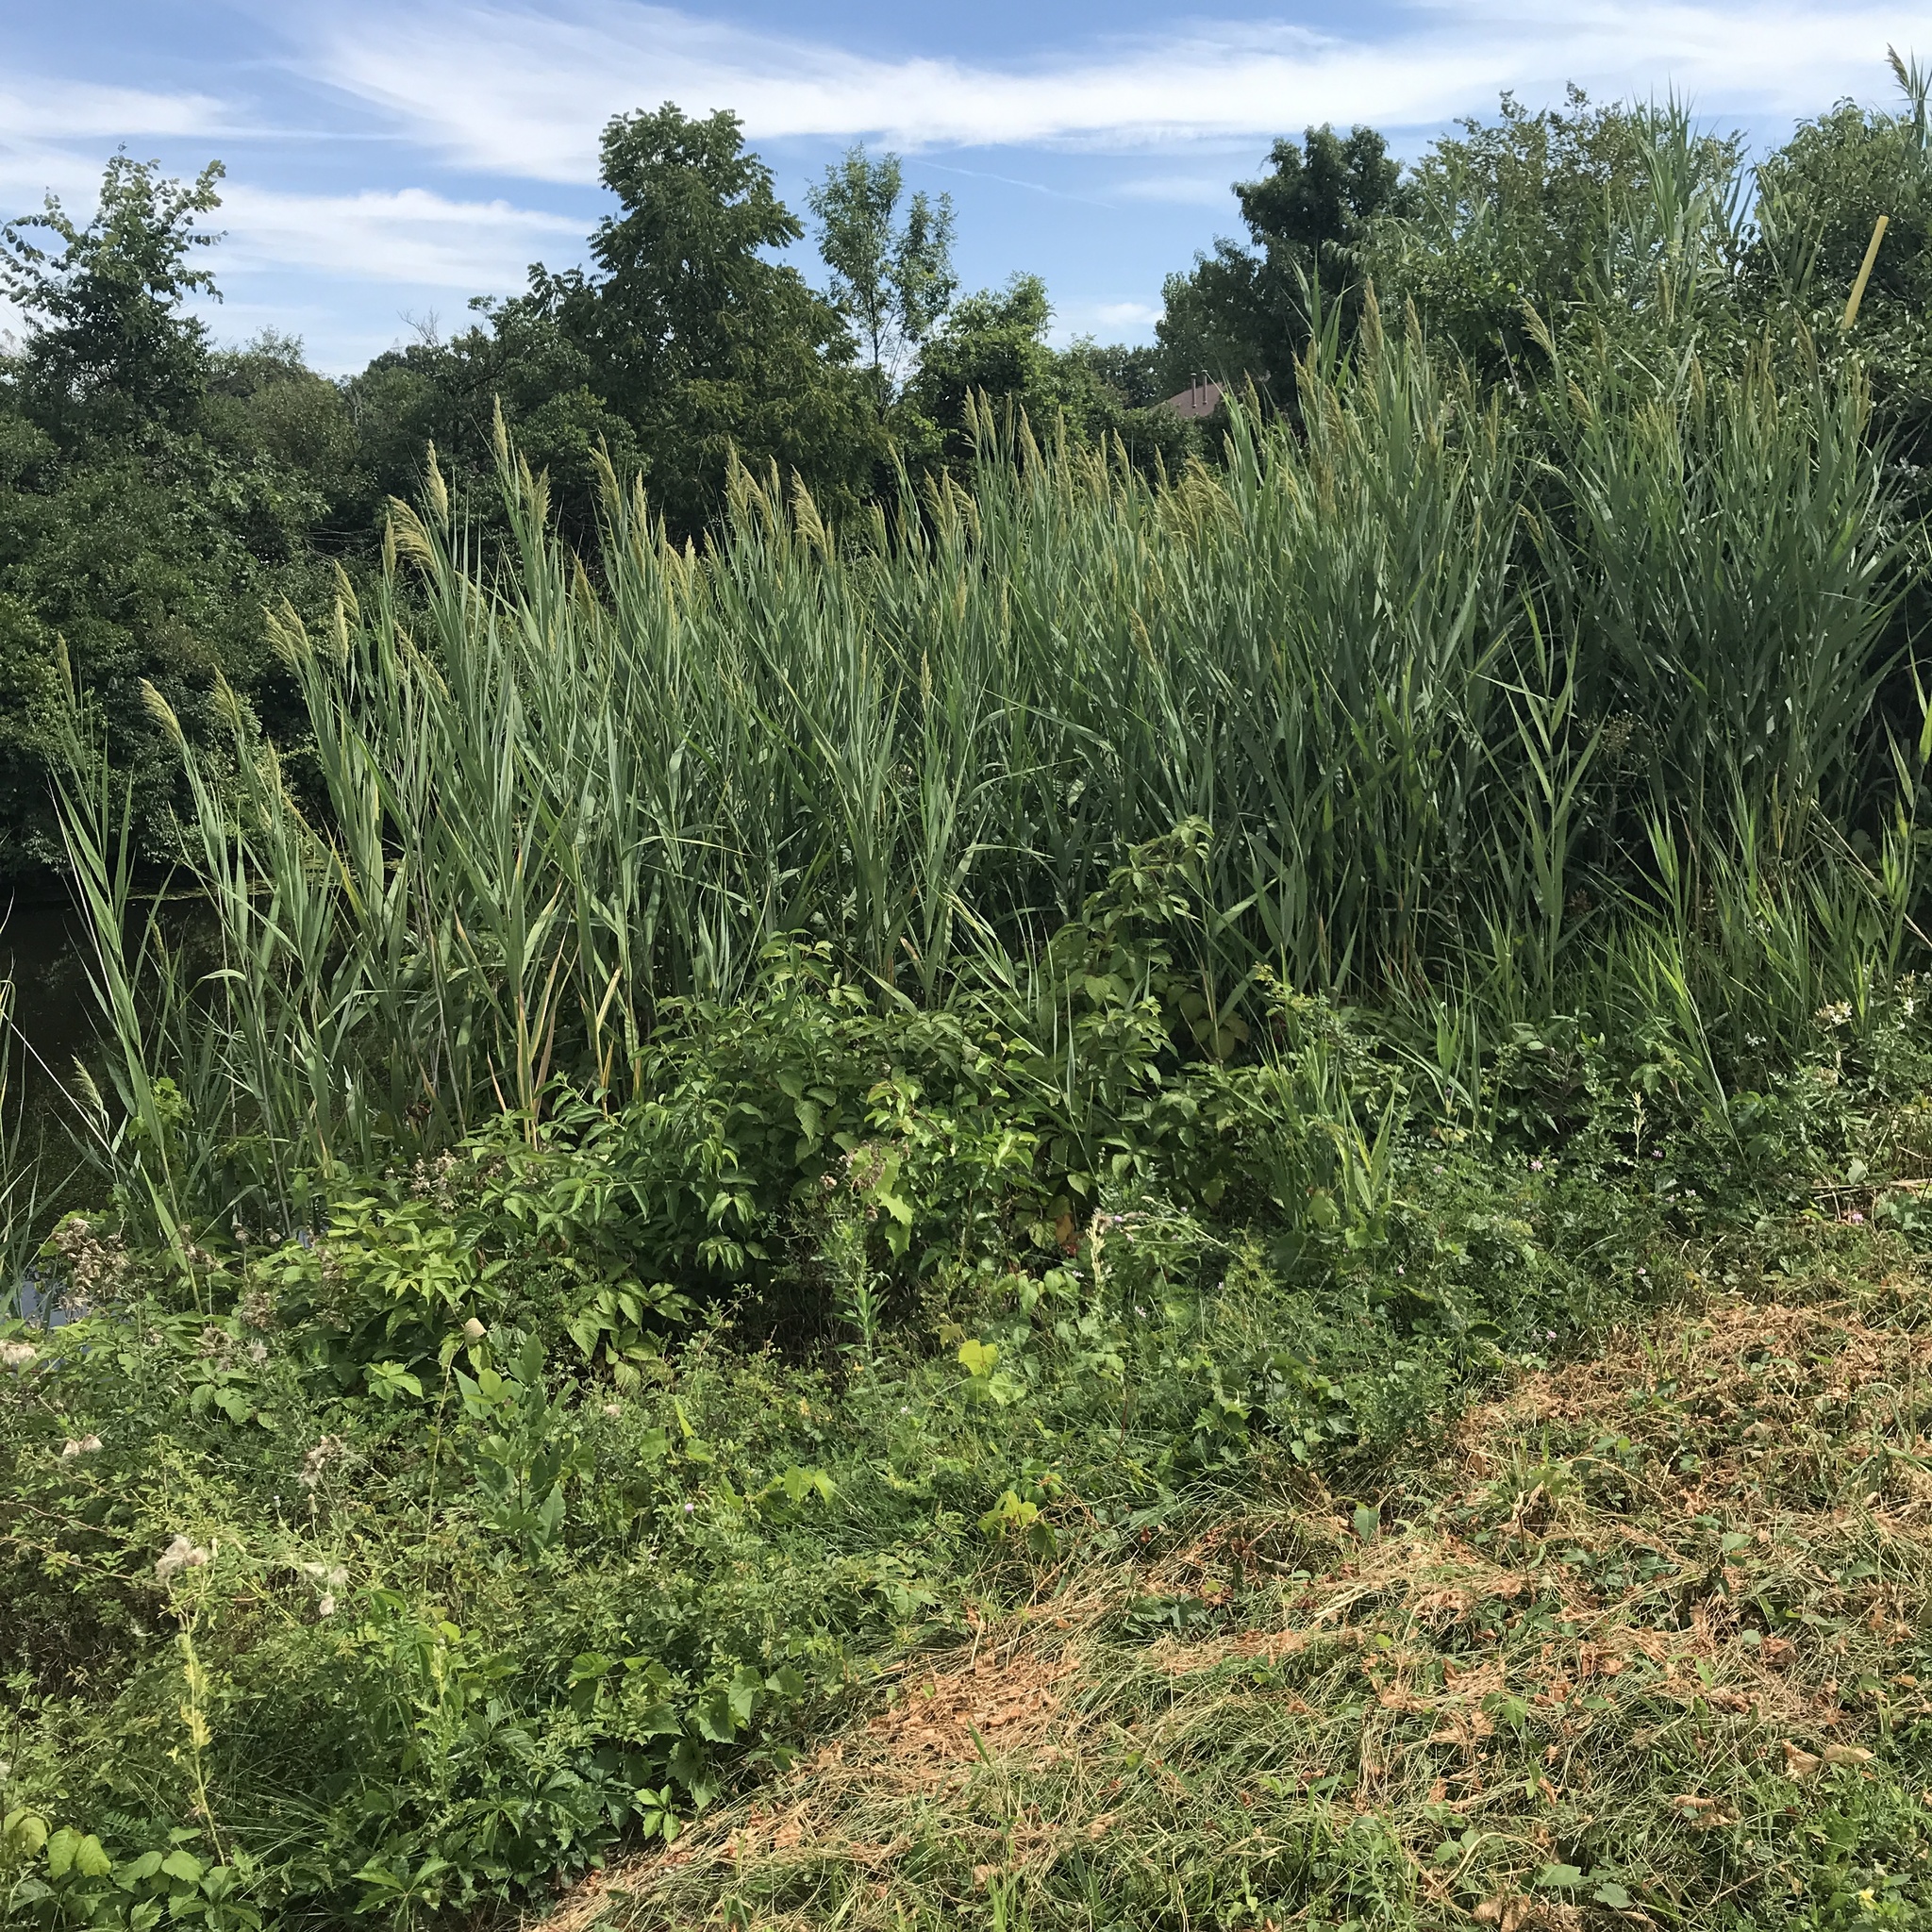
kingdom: Plantae
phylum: Tracheophyta
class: Liliopsida
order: Poales
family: Poaceae
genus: Phragmites
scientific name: Phragmites australis
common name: Common reed
